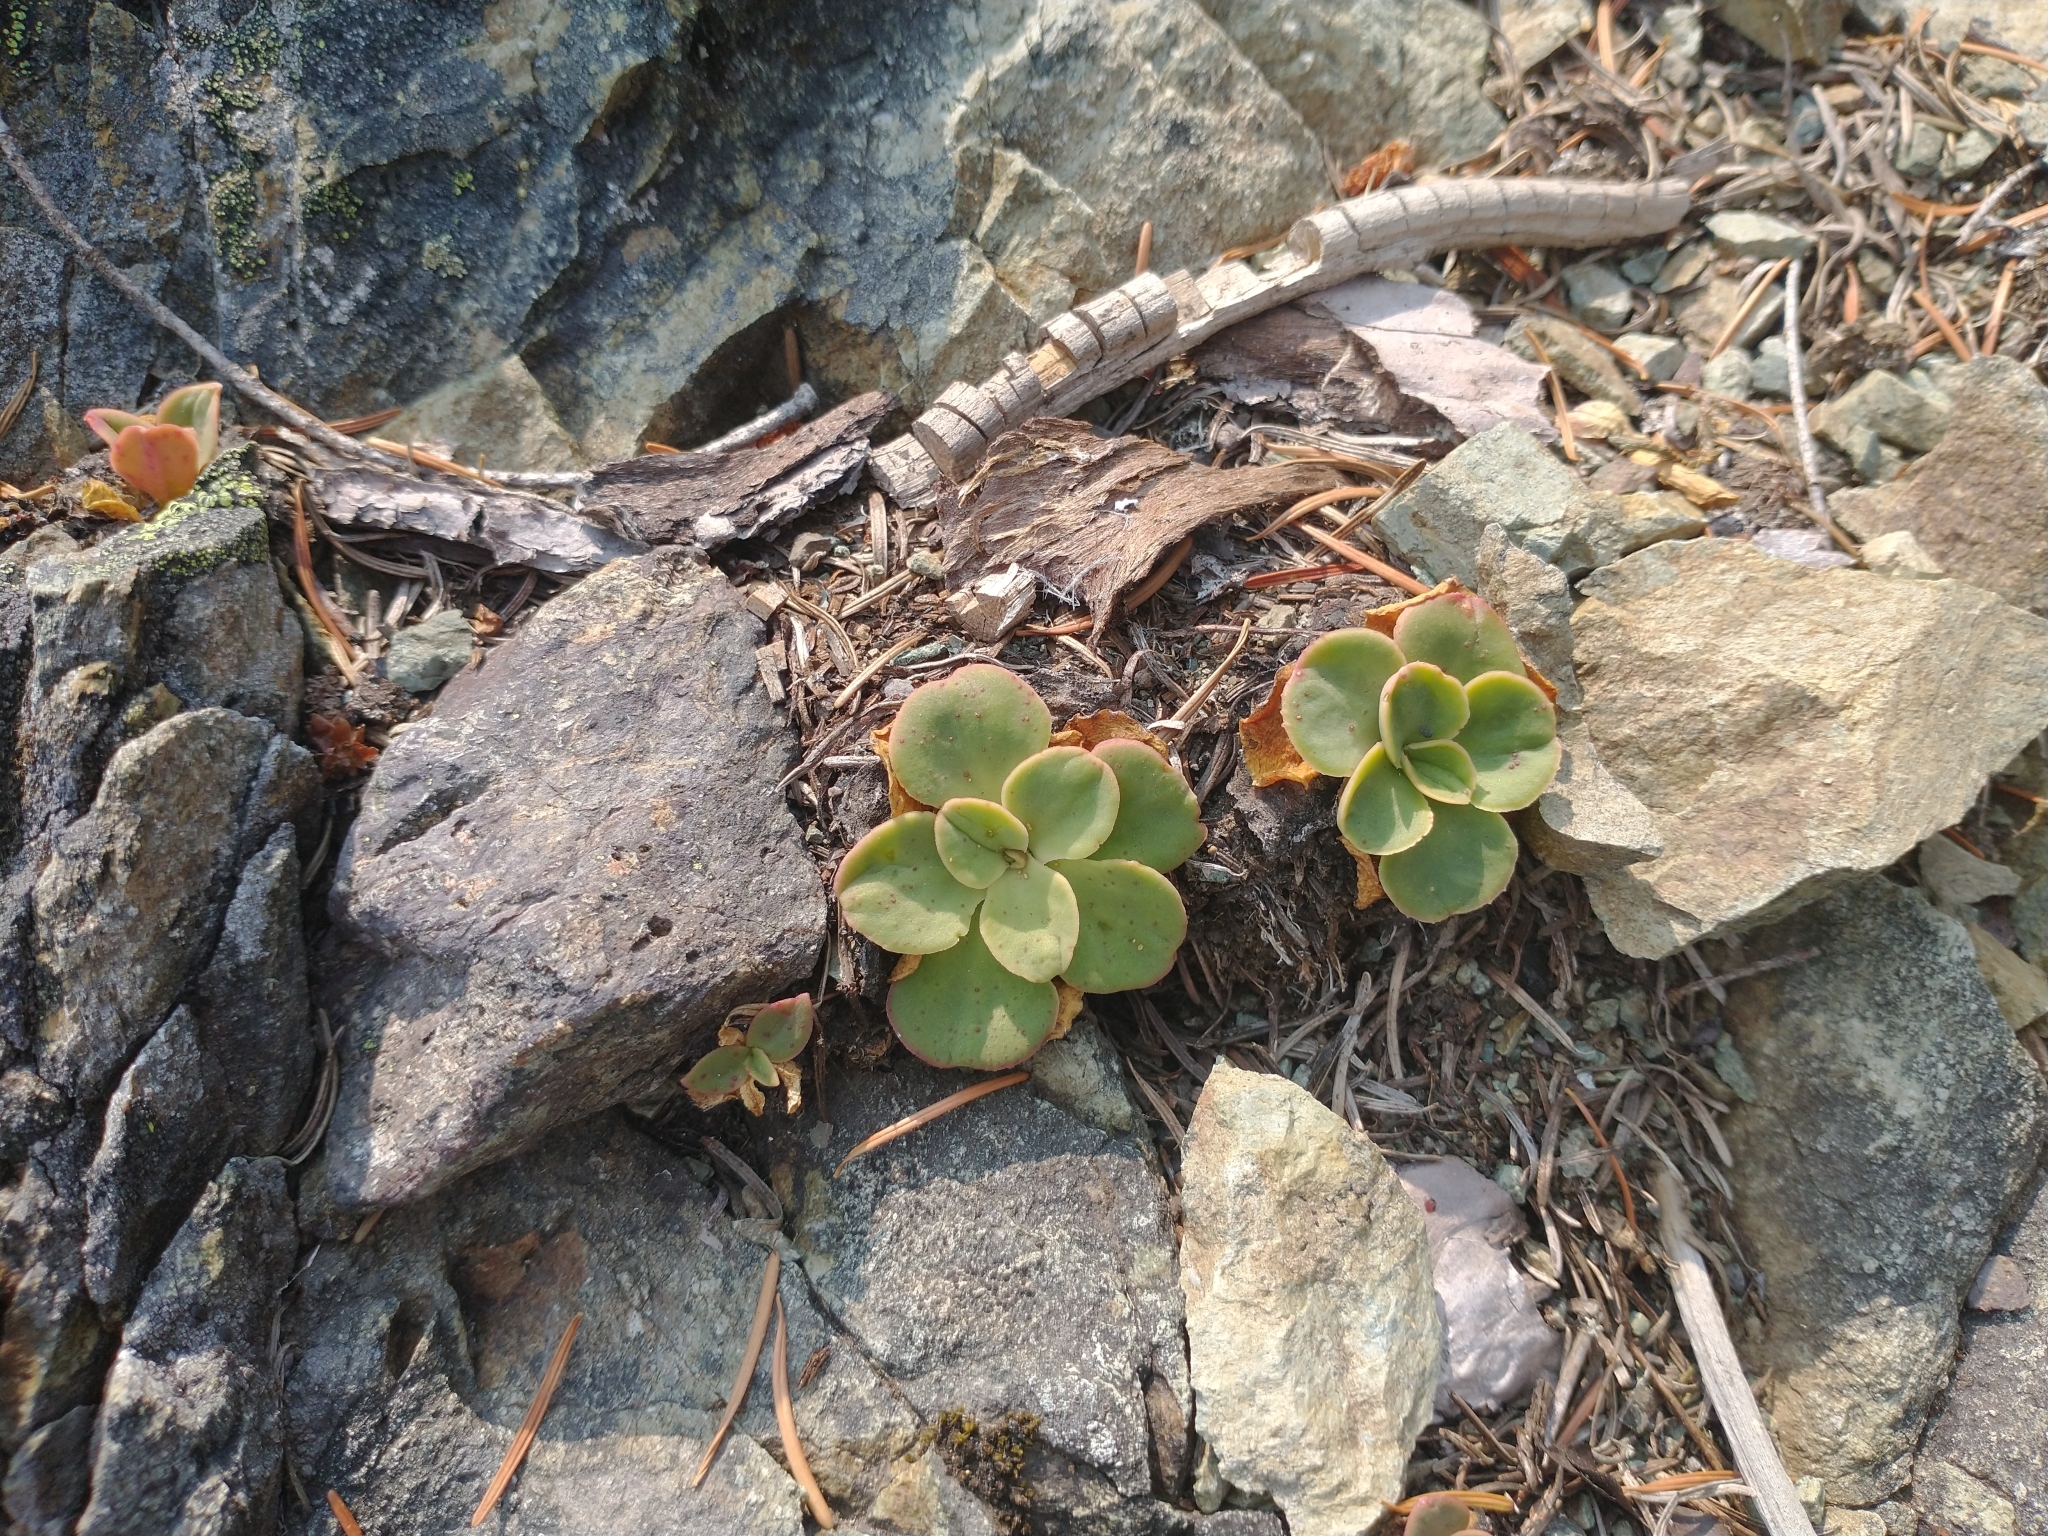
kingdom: Plantae
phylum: Tracheophyta
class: Magnoliopsida
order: Caryophyllales
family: Montiaceae
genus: Lewisia
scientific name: Lewisia cotyledon
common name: Siskiyou lewisia
